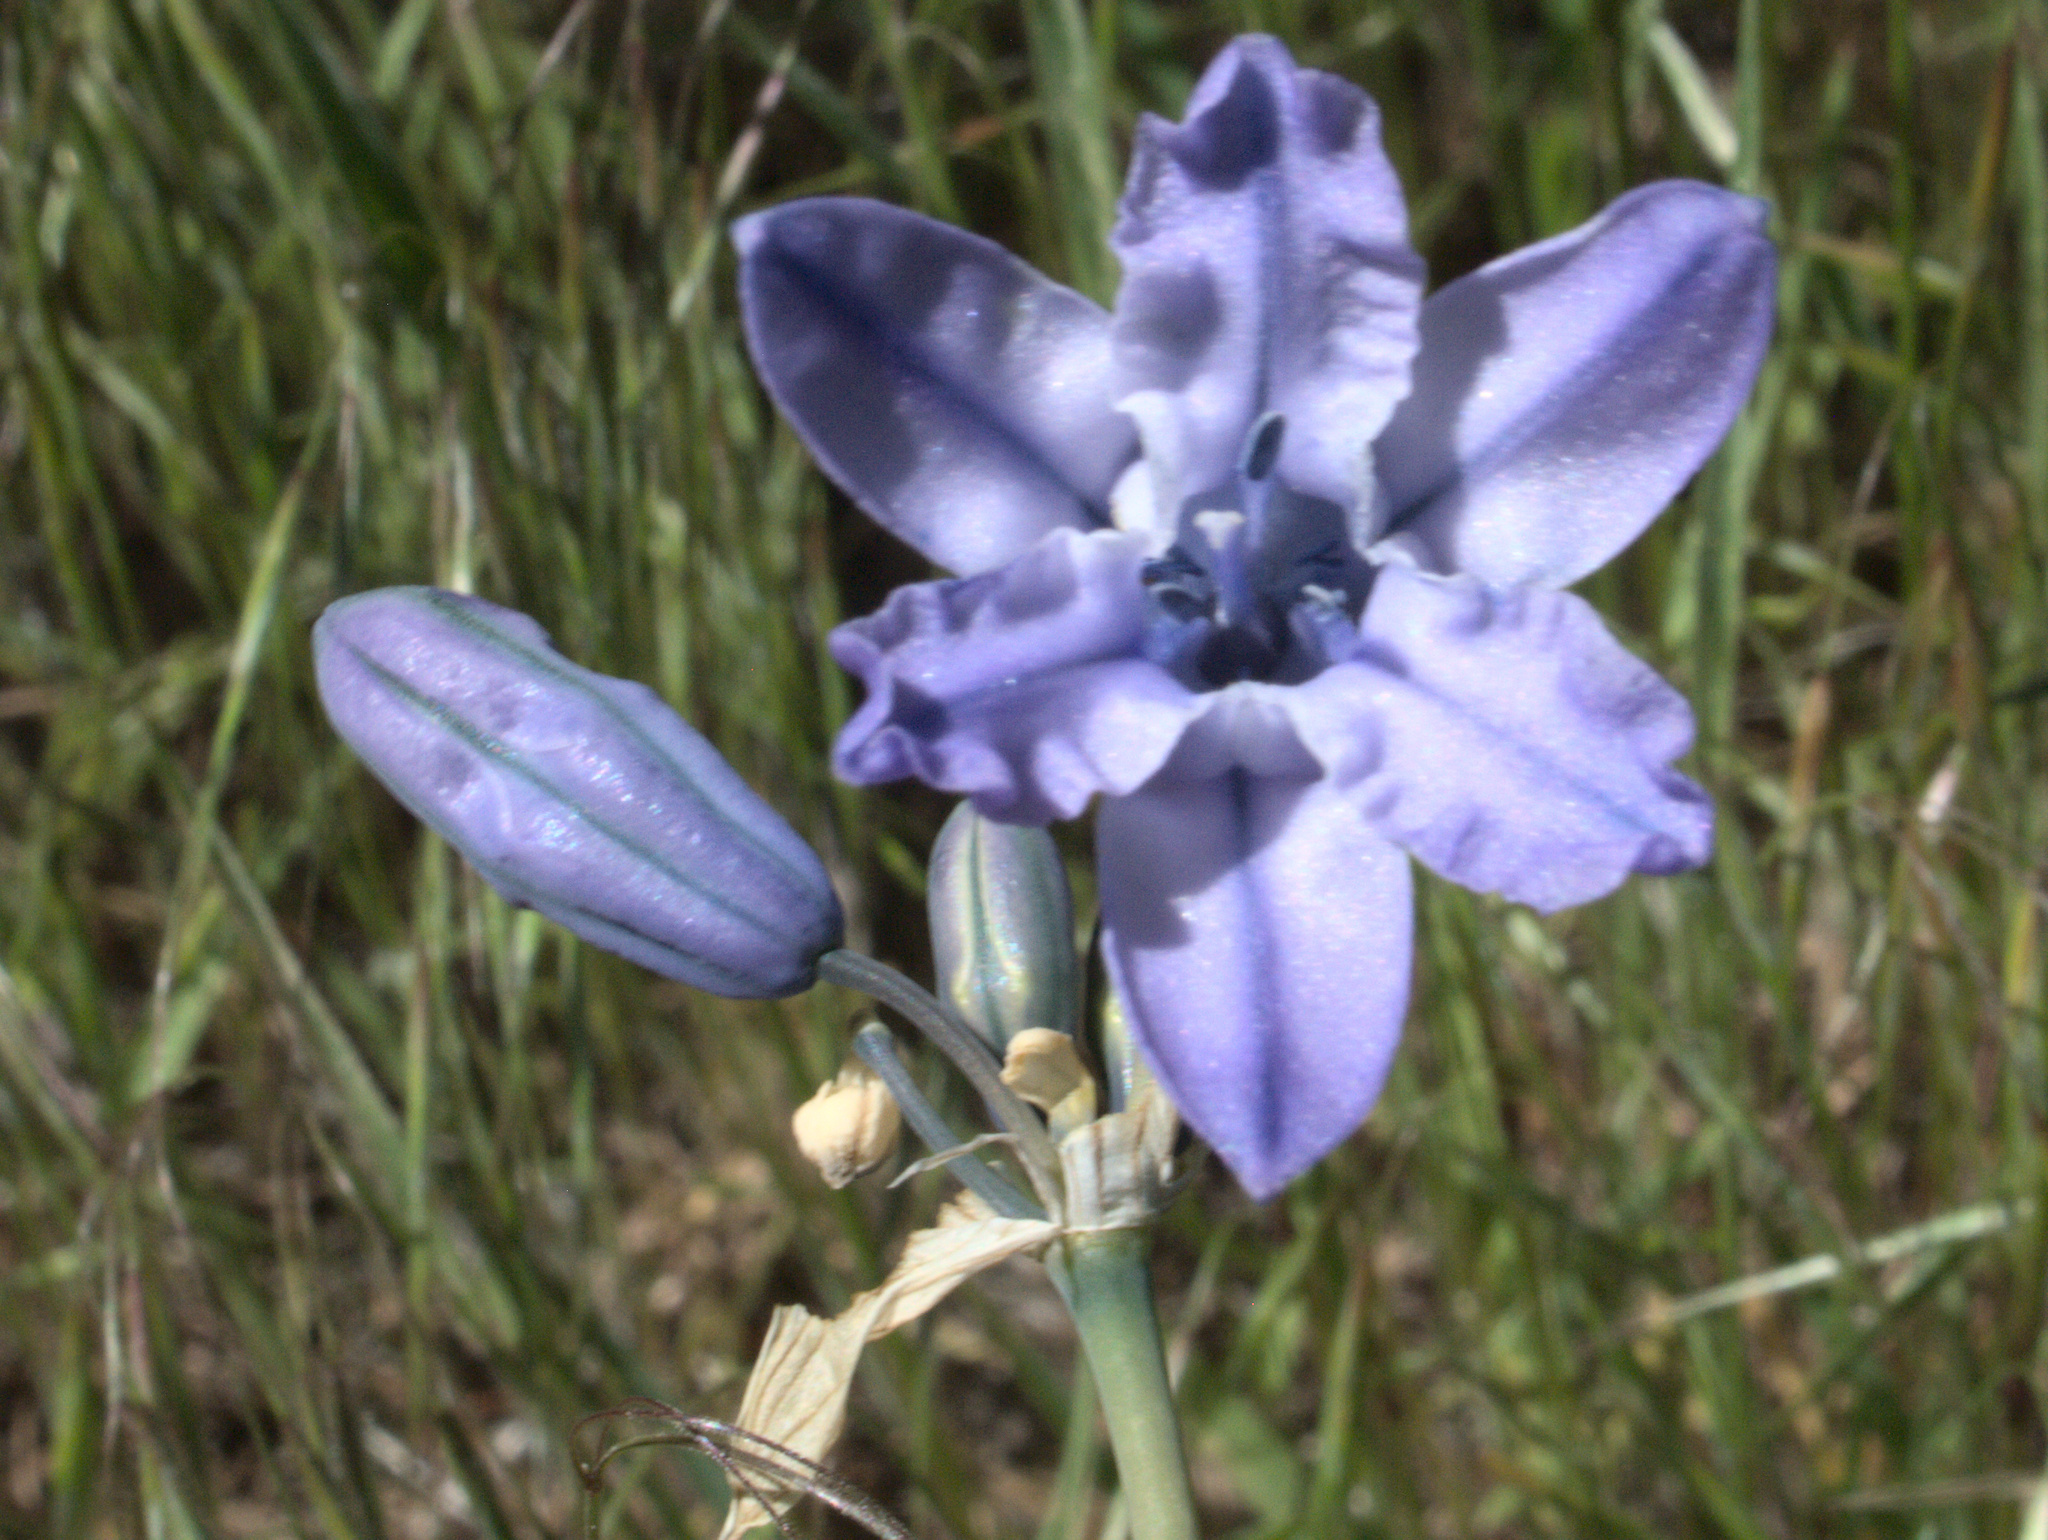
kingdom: Plantae
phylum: Tracheophyta
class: Liliopsida
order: Asparagales
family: Asparagaceae
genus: Triteleia
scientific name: Triteleia grandiflora
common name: Wild hyacinth
